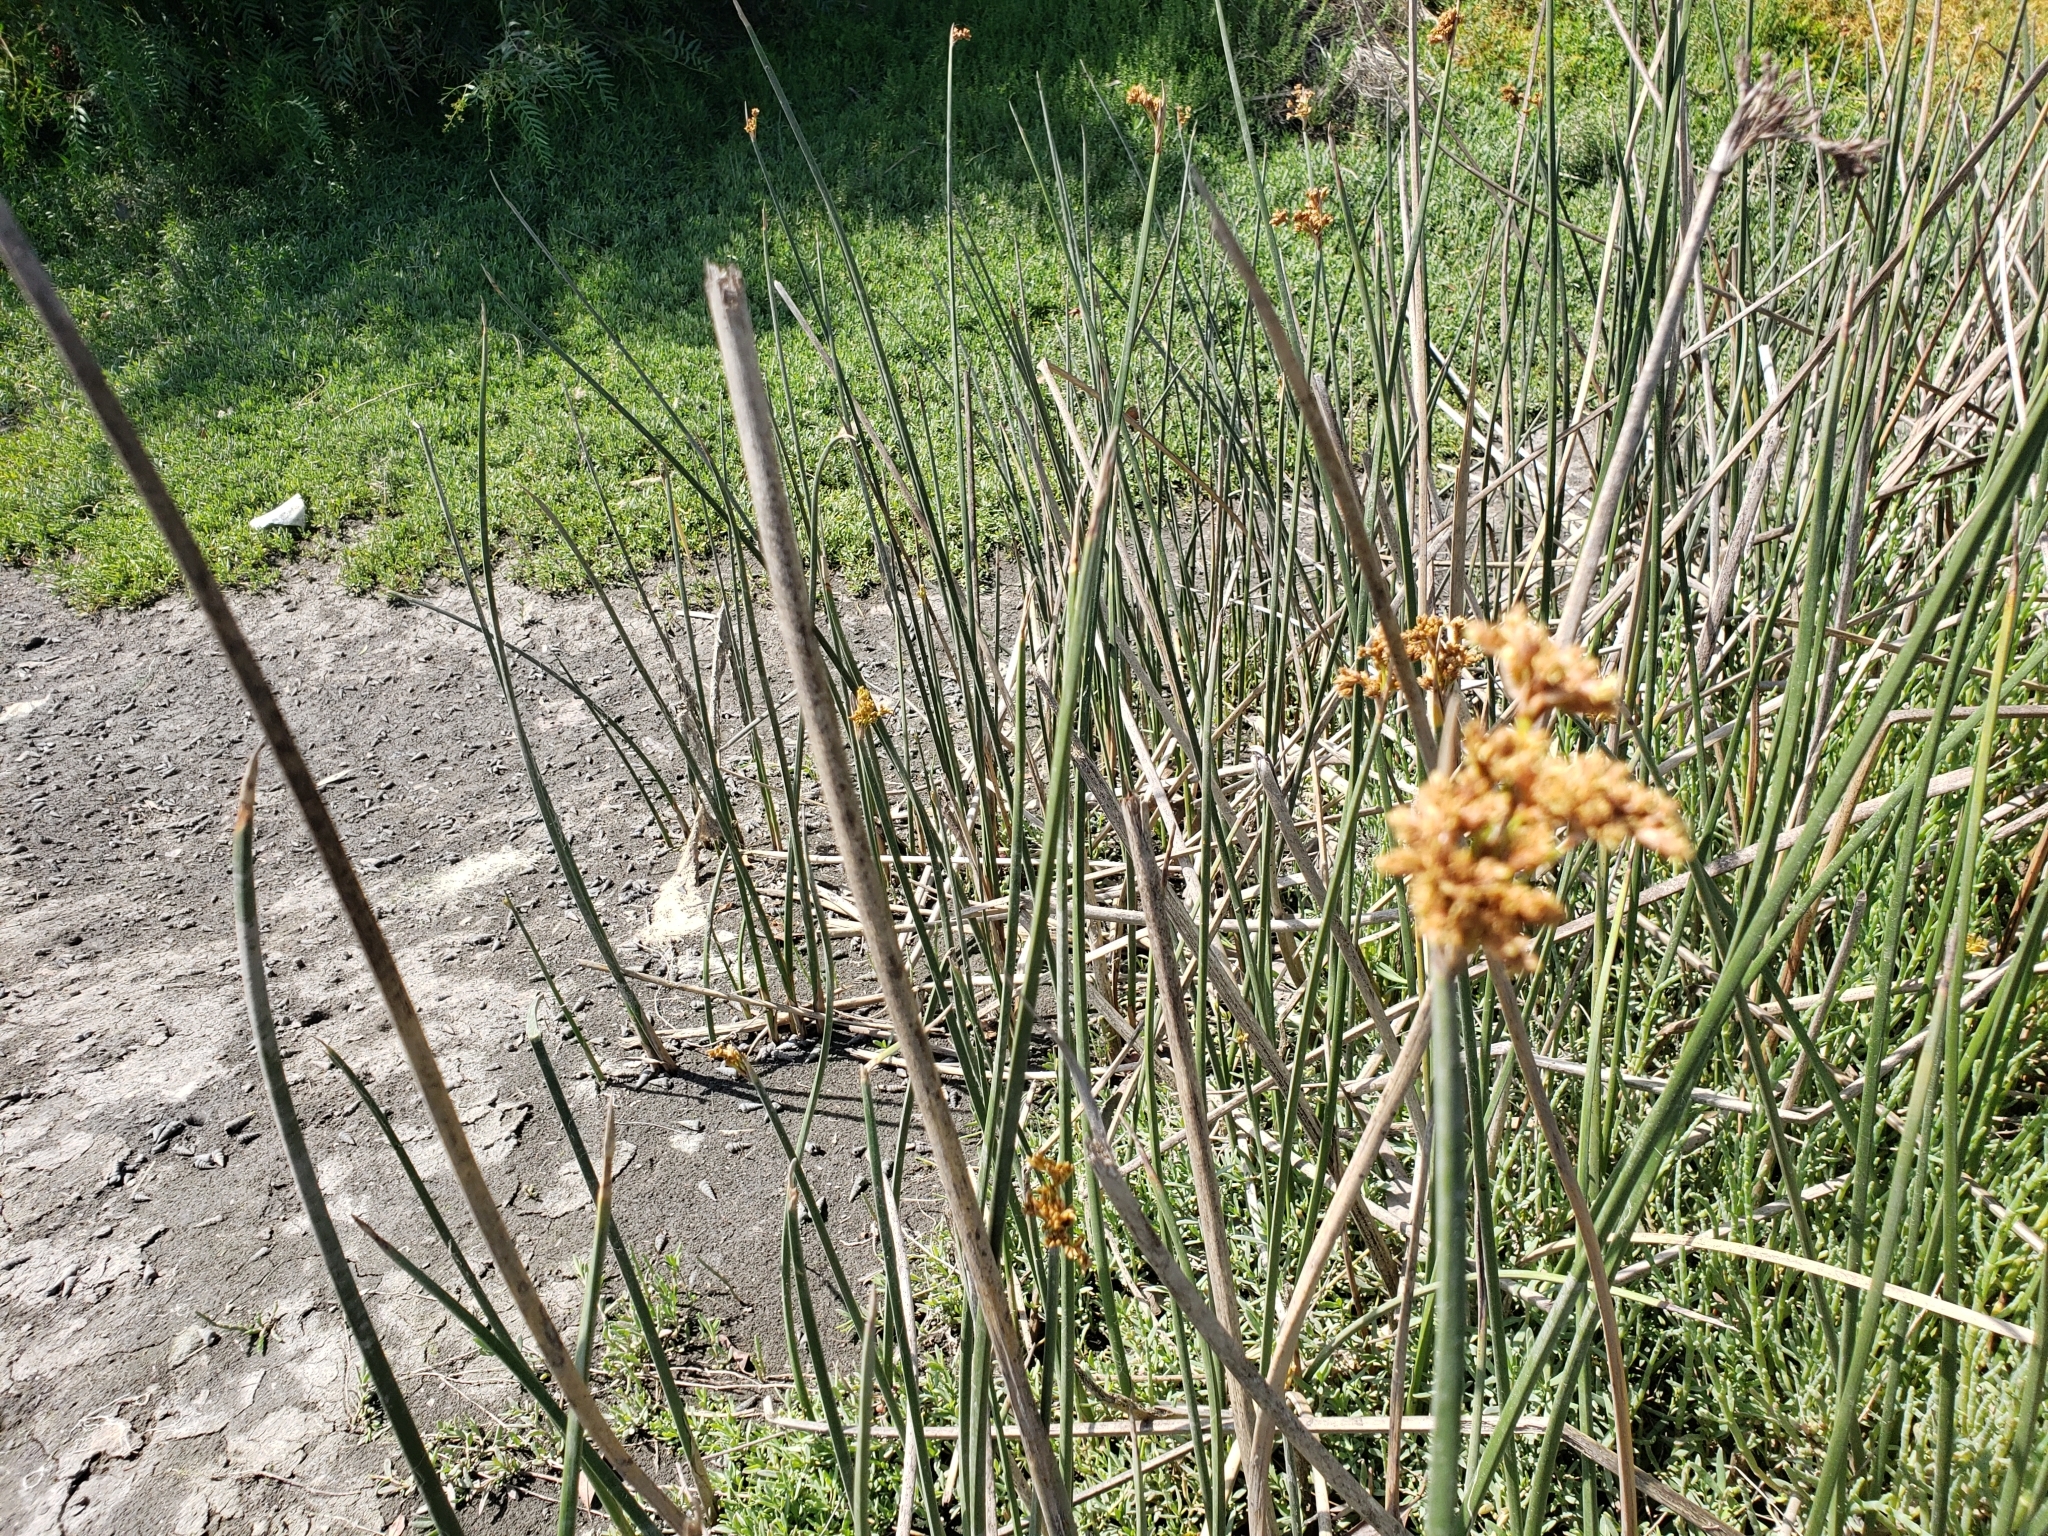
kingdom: Plantae
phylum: Tracheophyta
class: Liliopsida
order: Poales
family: Cyperaceae
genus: Schoenoplectus
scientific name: Schoenoplectus californicus
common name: California bulrush
